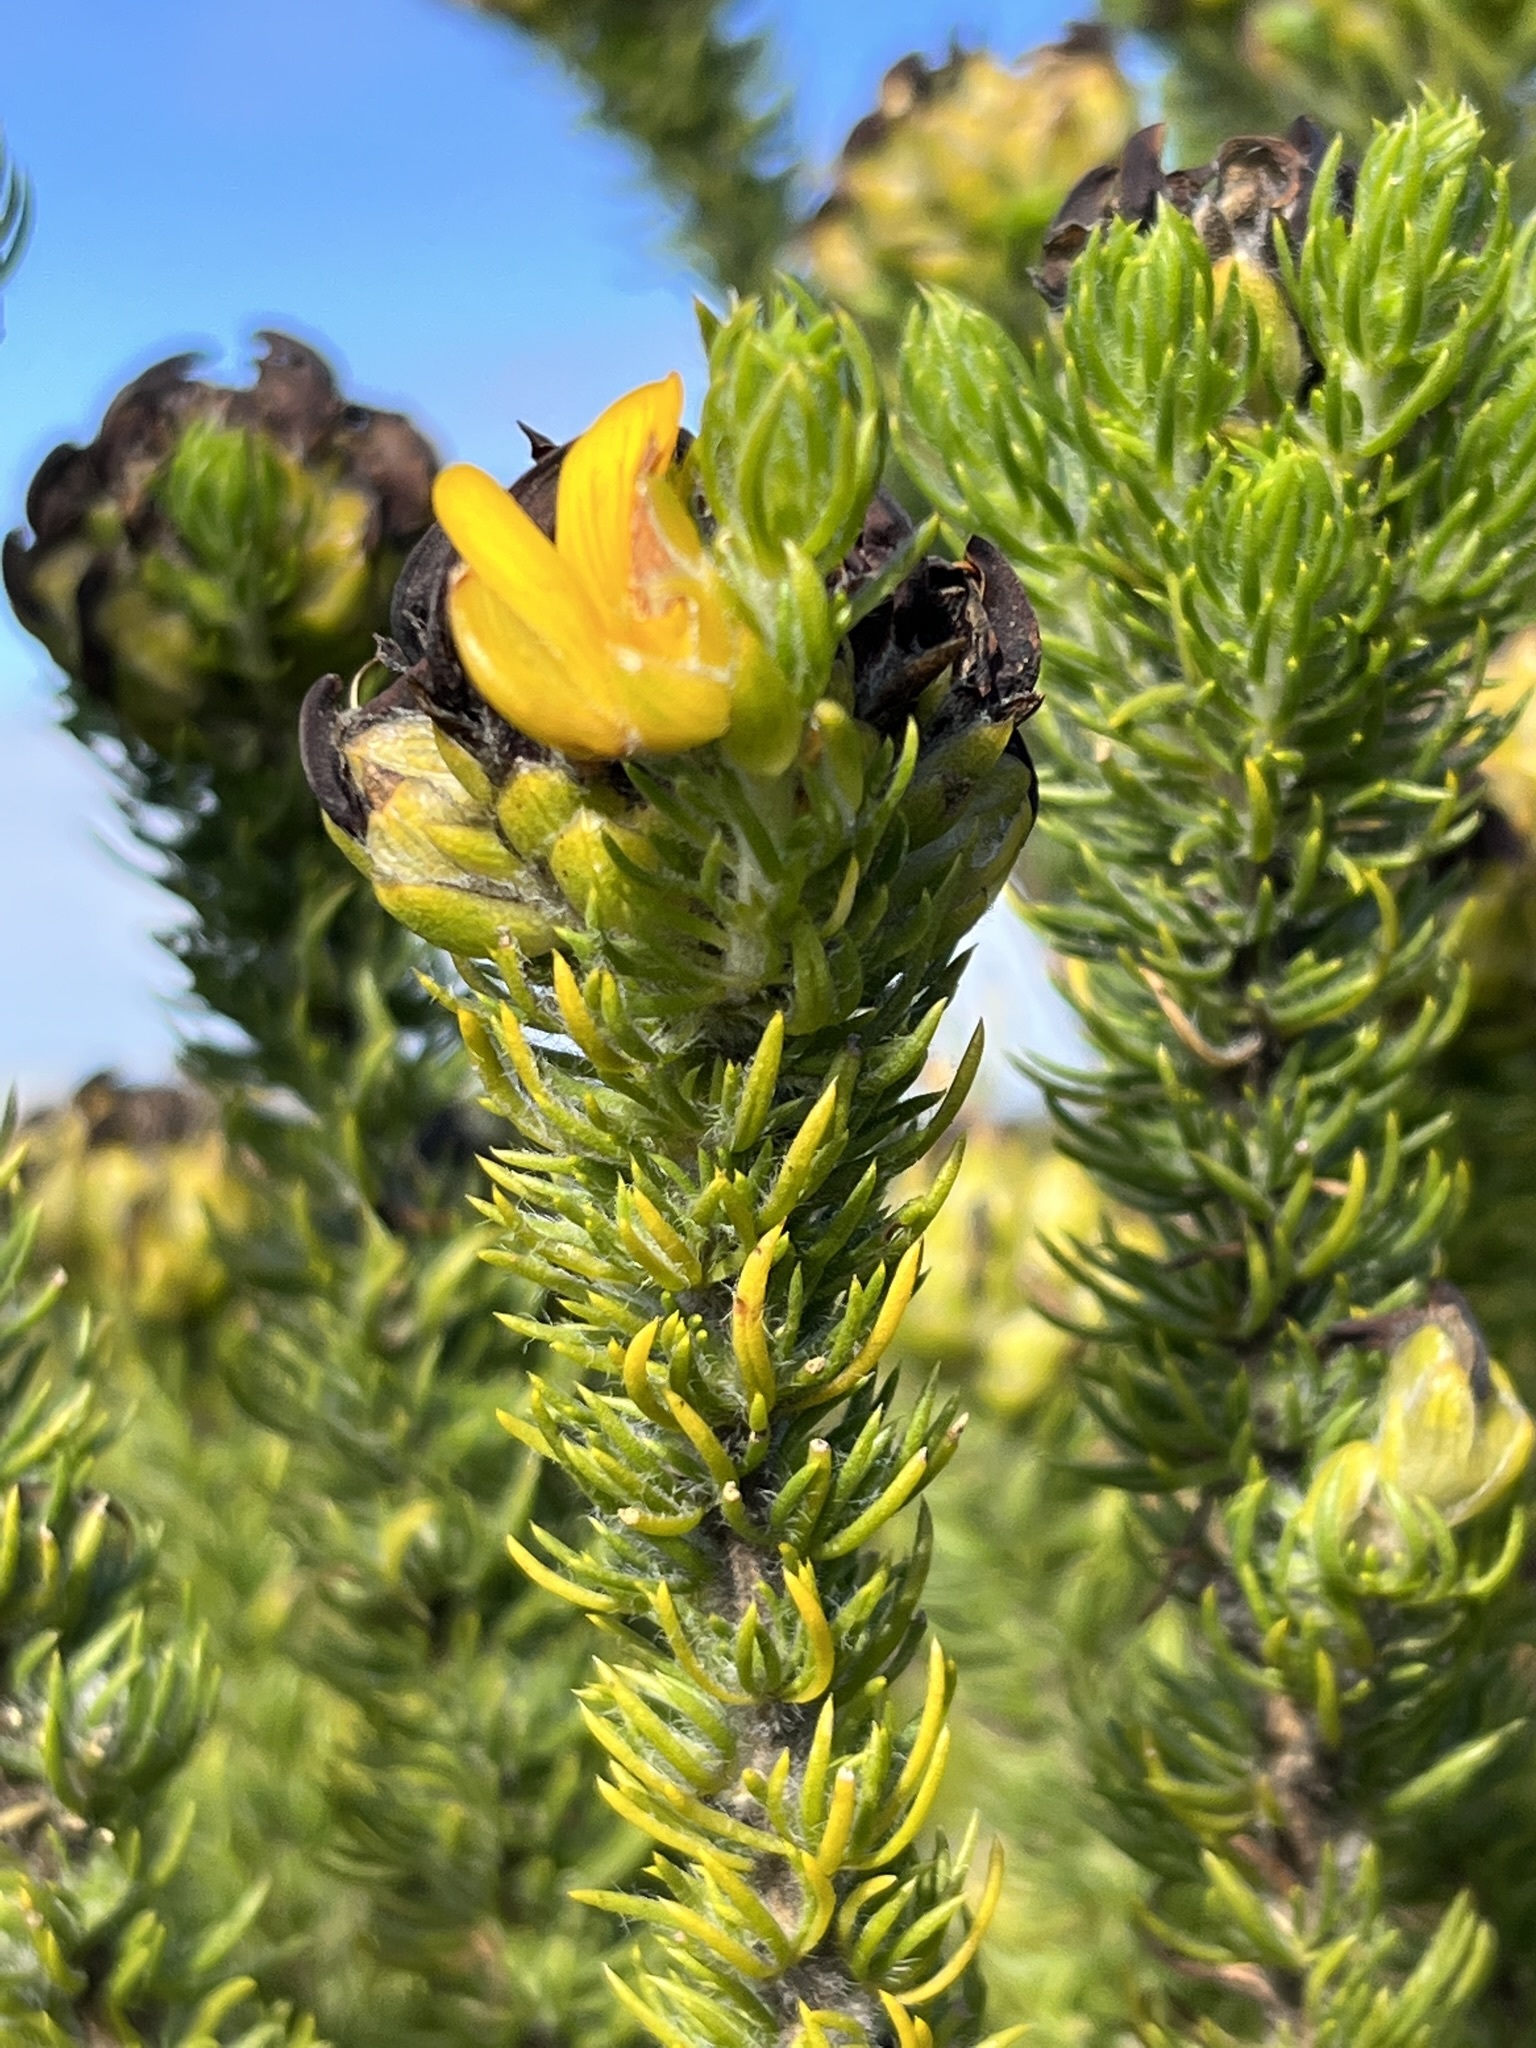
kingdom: Plantae
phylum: Tracheophyta
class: Magnoliopsida
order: Fabales
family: Fabaceae
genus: Aspalathus
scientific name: Aspalathus capitata
